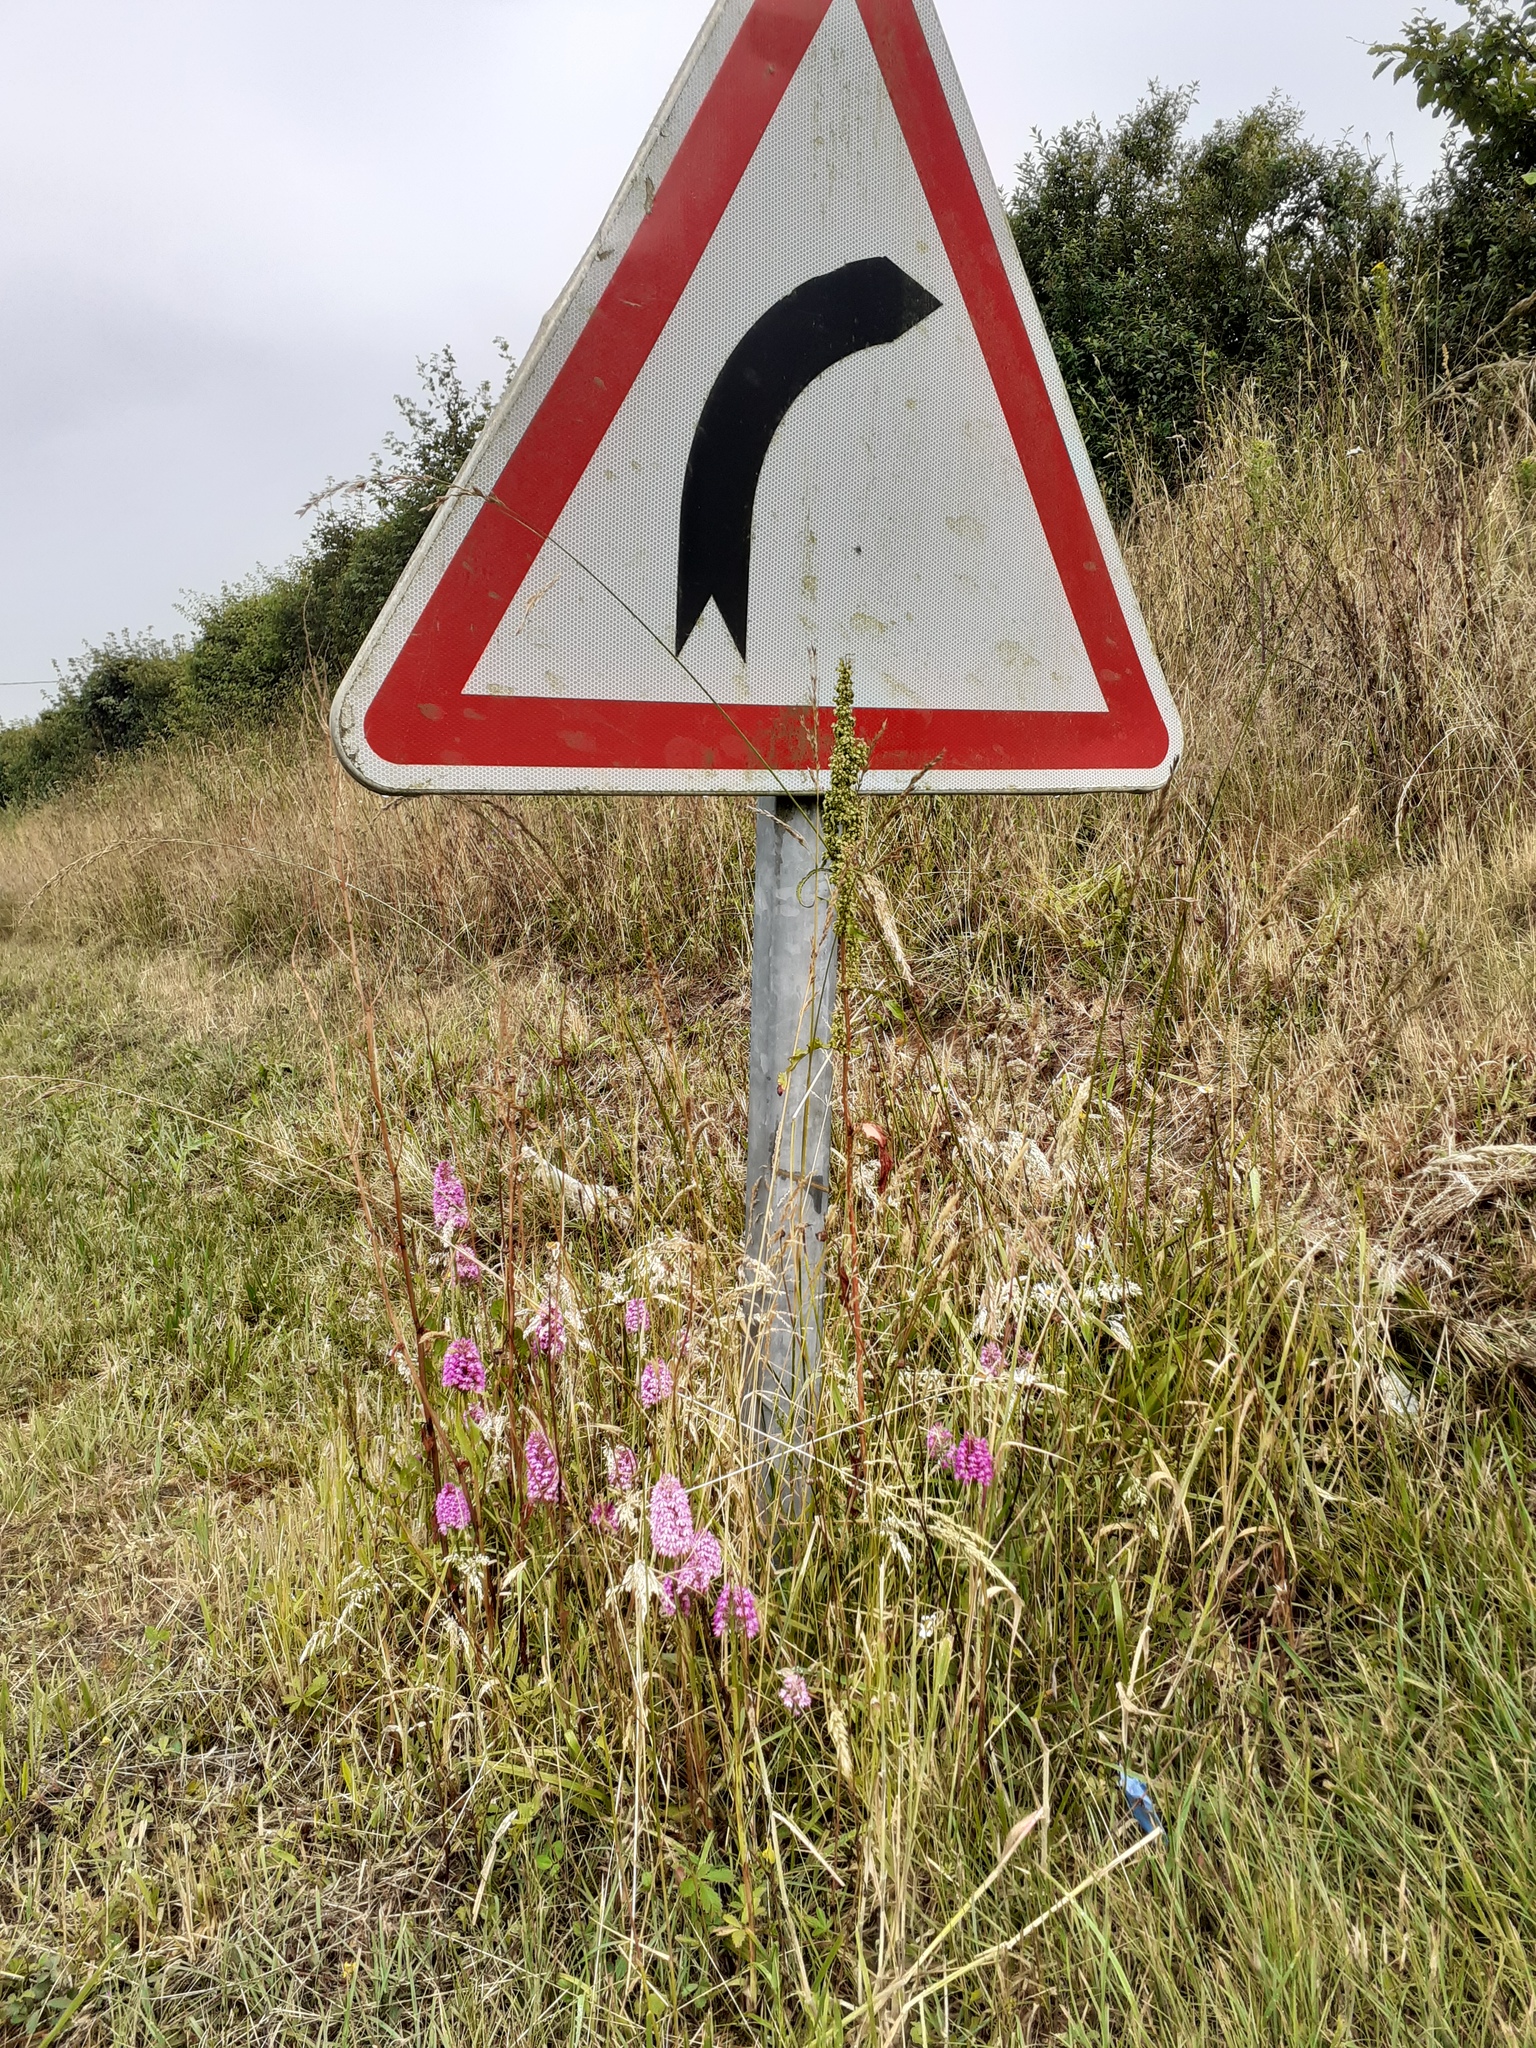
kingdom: Plantae
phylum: Tracheophyta
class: Liliopsida
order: Asparagales
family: Orchidaceae
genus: Anacamptis
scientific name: Anacamptis pyramidalis
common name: Pyramidal orchid
